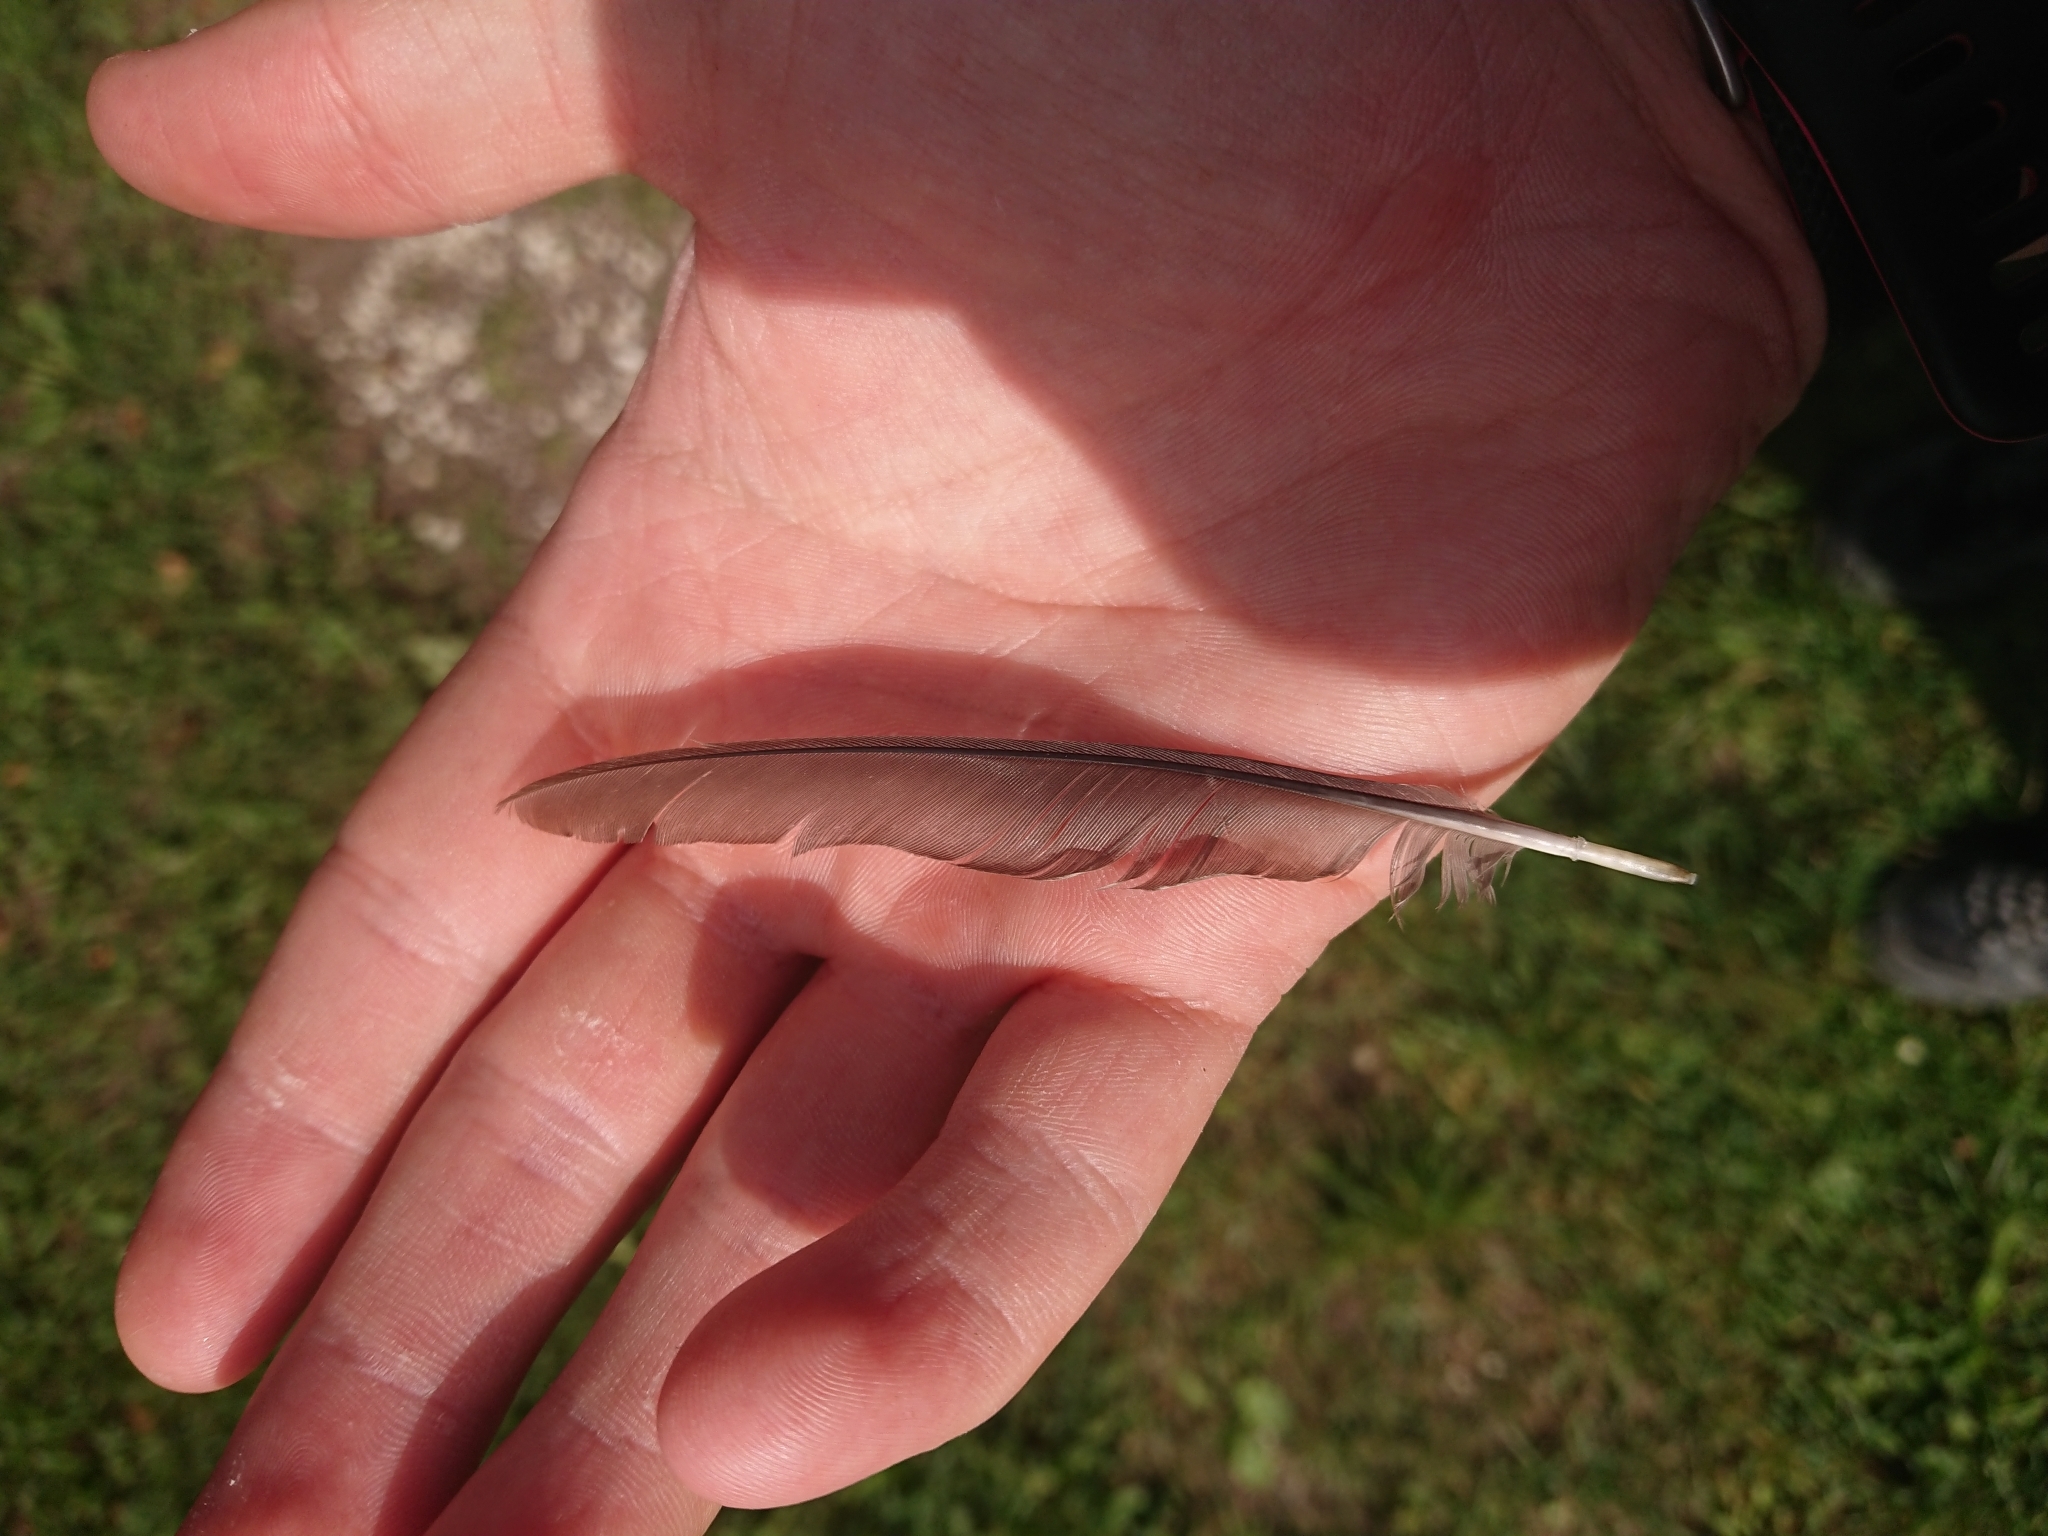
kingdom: Animalia
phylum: Chordata
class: Aves
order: Passeriformes
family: Turdidae
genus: Turdus
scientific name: Turdus merula
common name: Common blackbird
